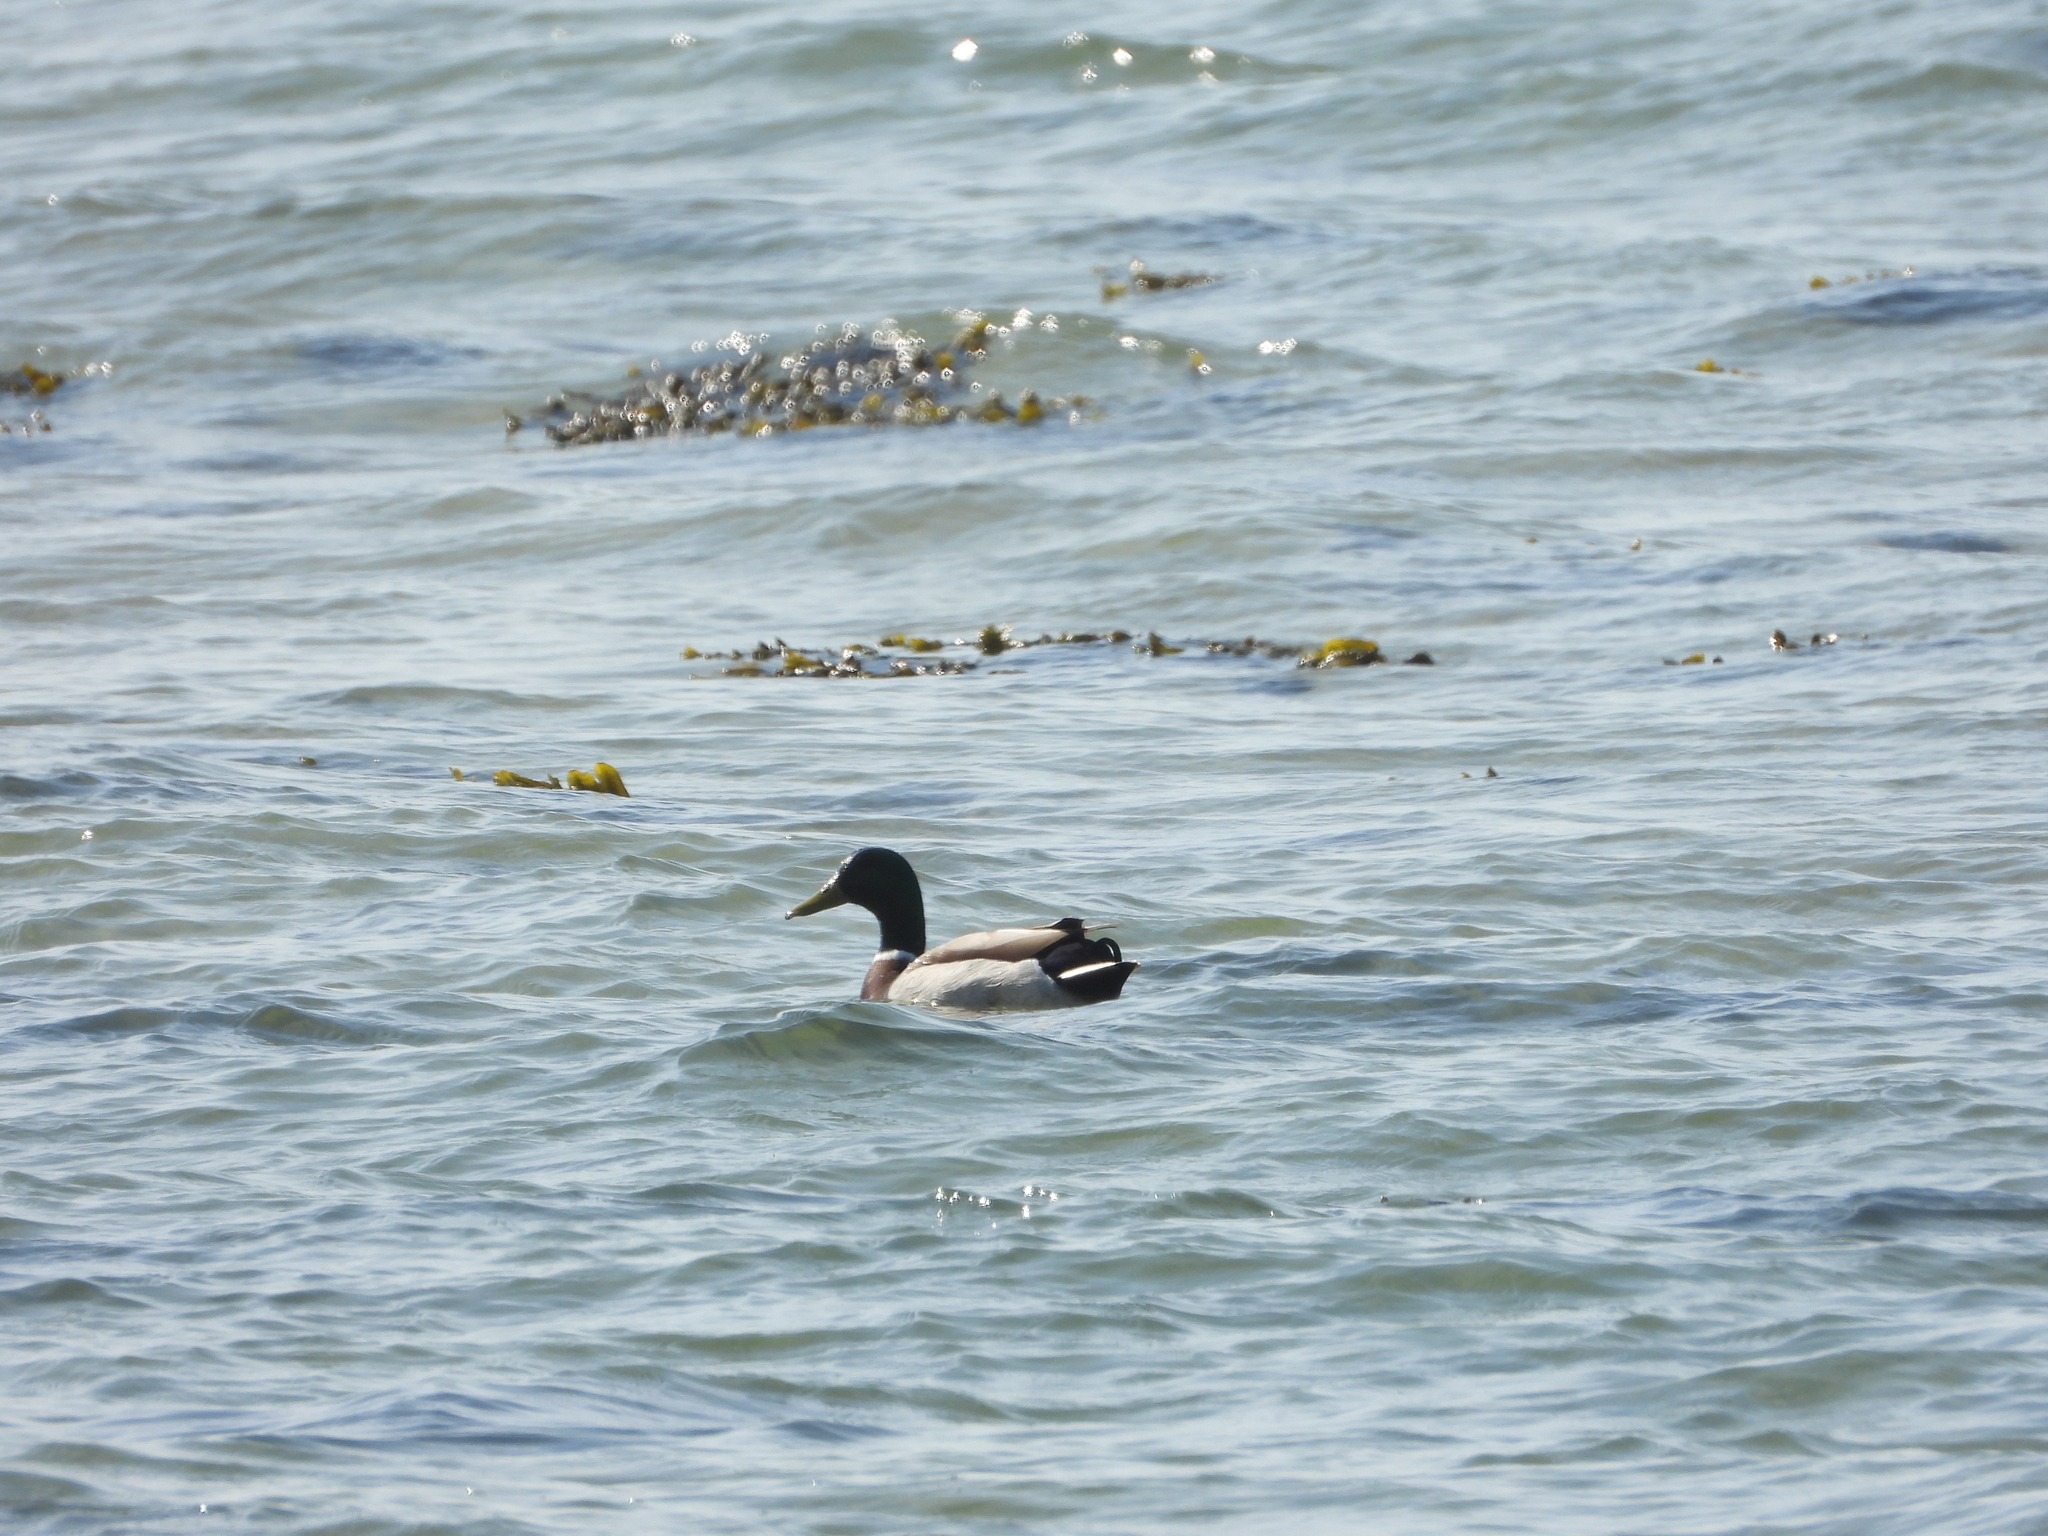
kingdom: Animalia
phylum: Chordata
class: Aves
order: Anseriformes
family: Anatidae
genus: Anas
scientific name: Anas platyrhynchos
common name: Mallard
